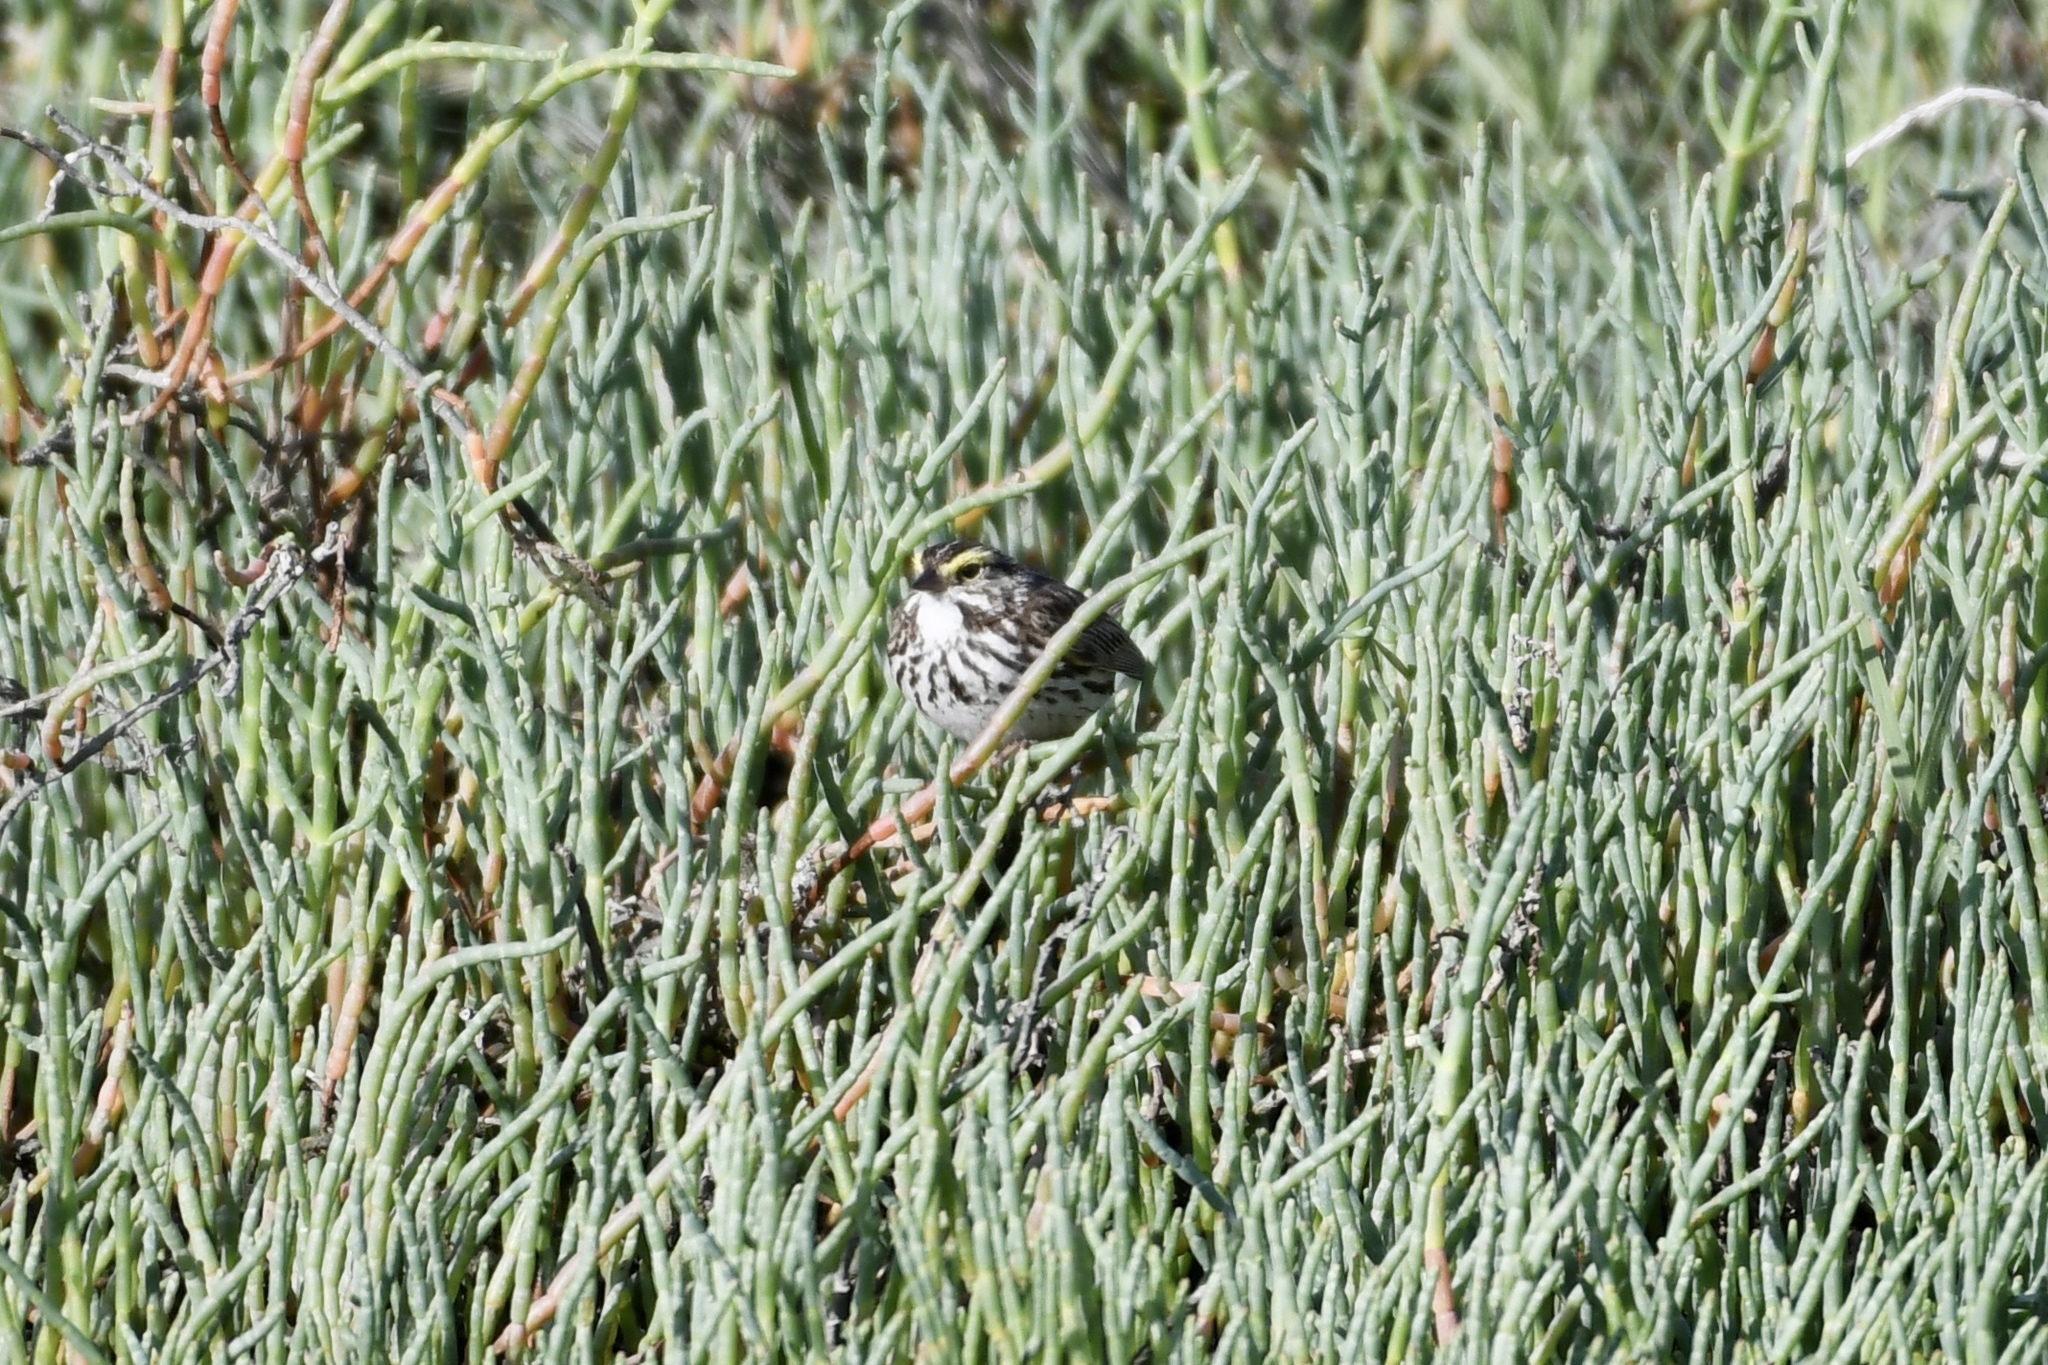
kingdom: Animalia
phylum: Chordata
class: Aves
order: Passeriformes
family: Passerellidae
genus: Passerculus
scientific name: Passerculus sandwichensis
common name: Savannah sparrow
